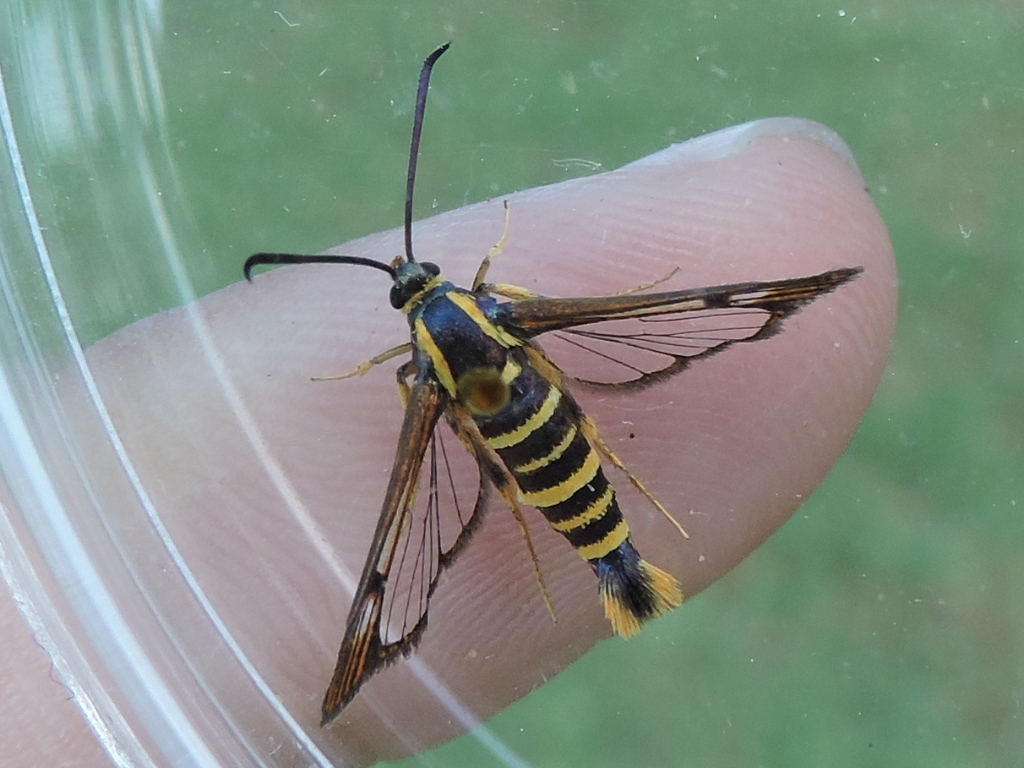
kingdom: Animalia
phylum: Arthropoda
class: Insecta
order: Lepidoptera
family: Sesiidae
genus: Synanthedon
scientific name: Synanthedon arkansasensis
